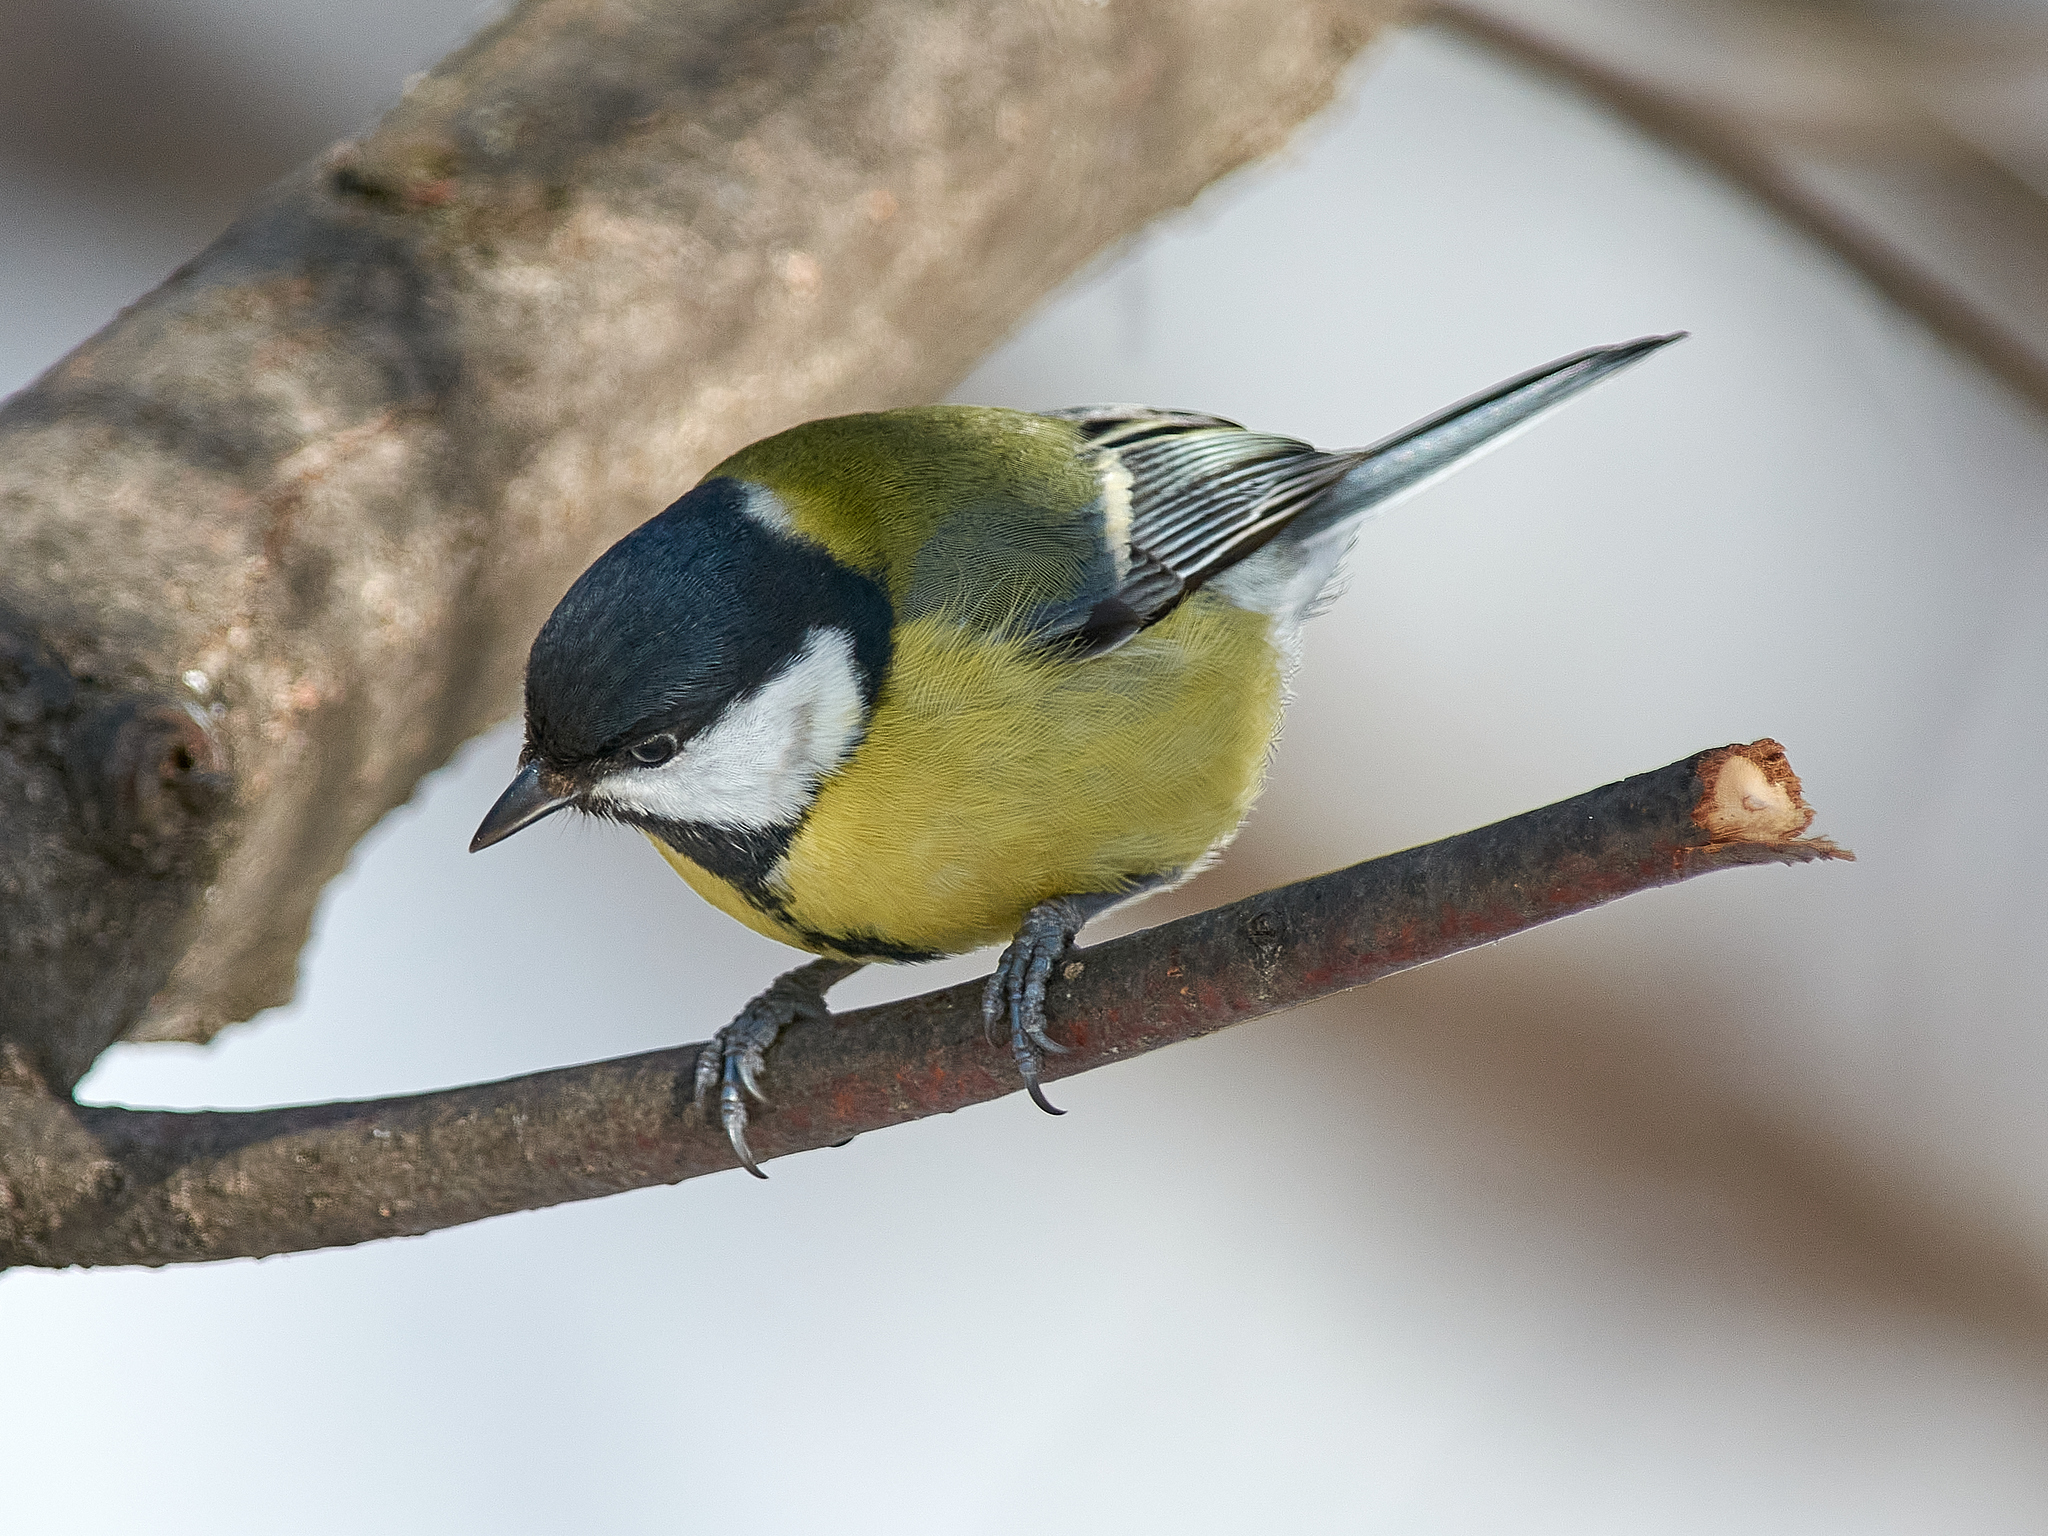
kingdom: Animalia
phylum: Chordata
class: Aves
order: Passeriformes
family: Paridae
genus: Parus
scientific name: Parus major
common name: Great tit
